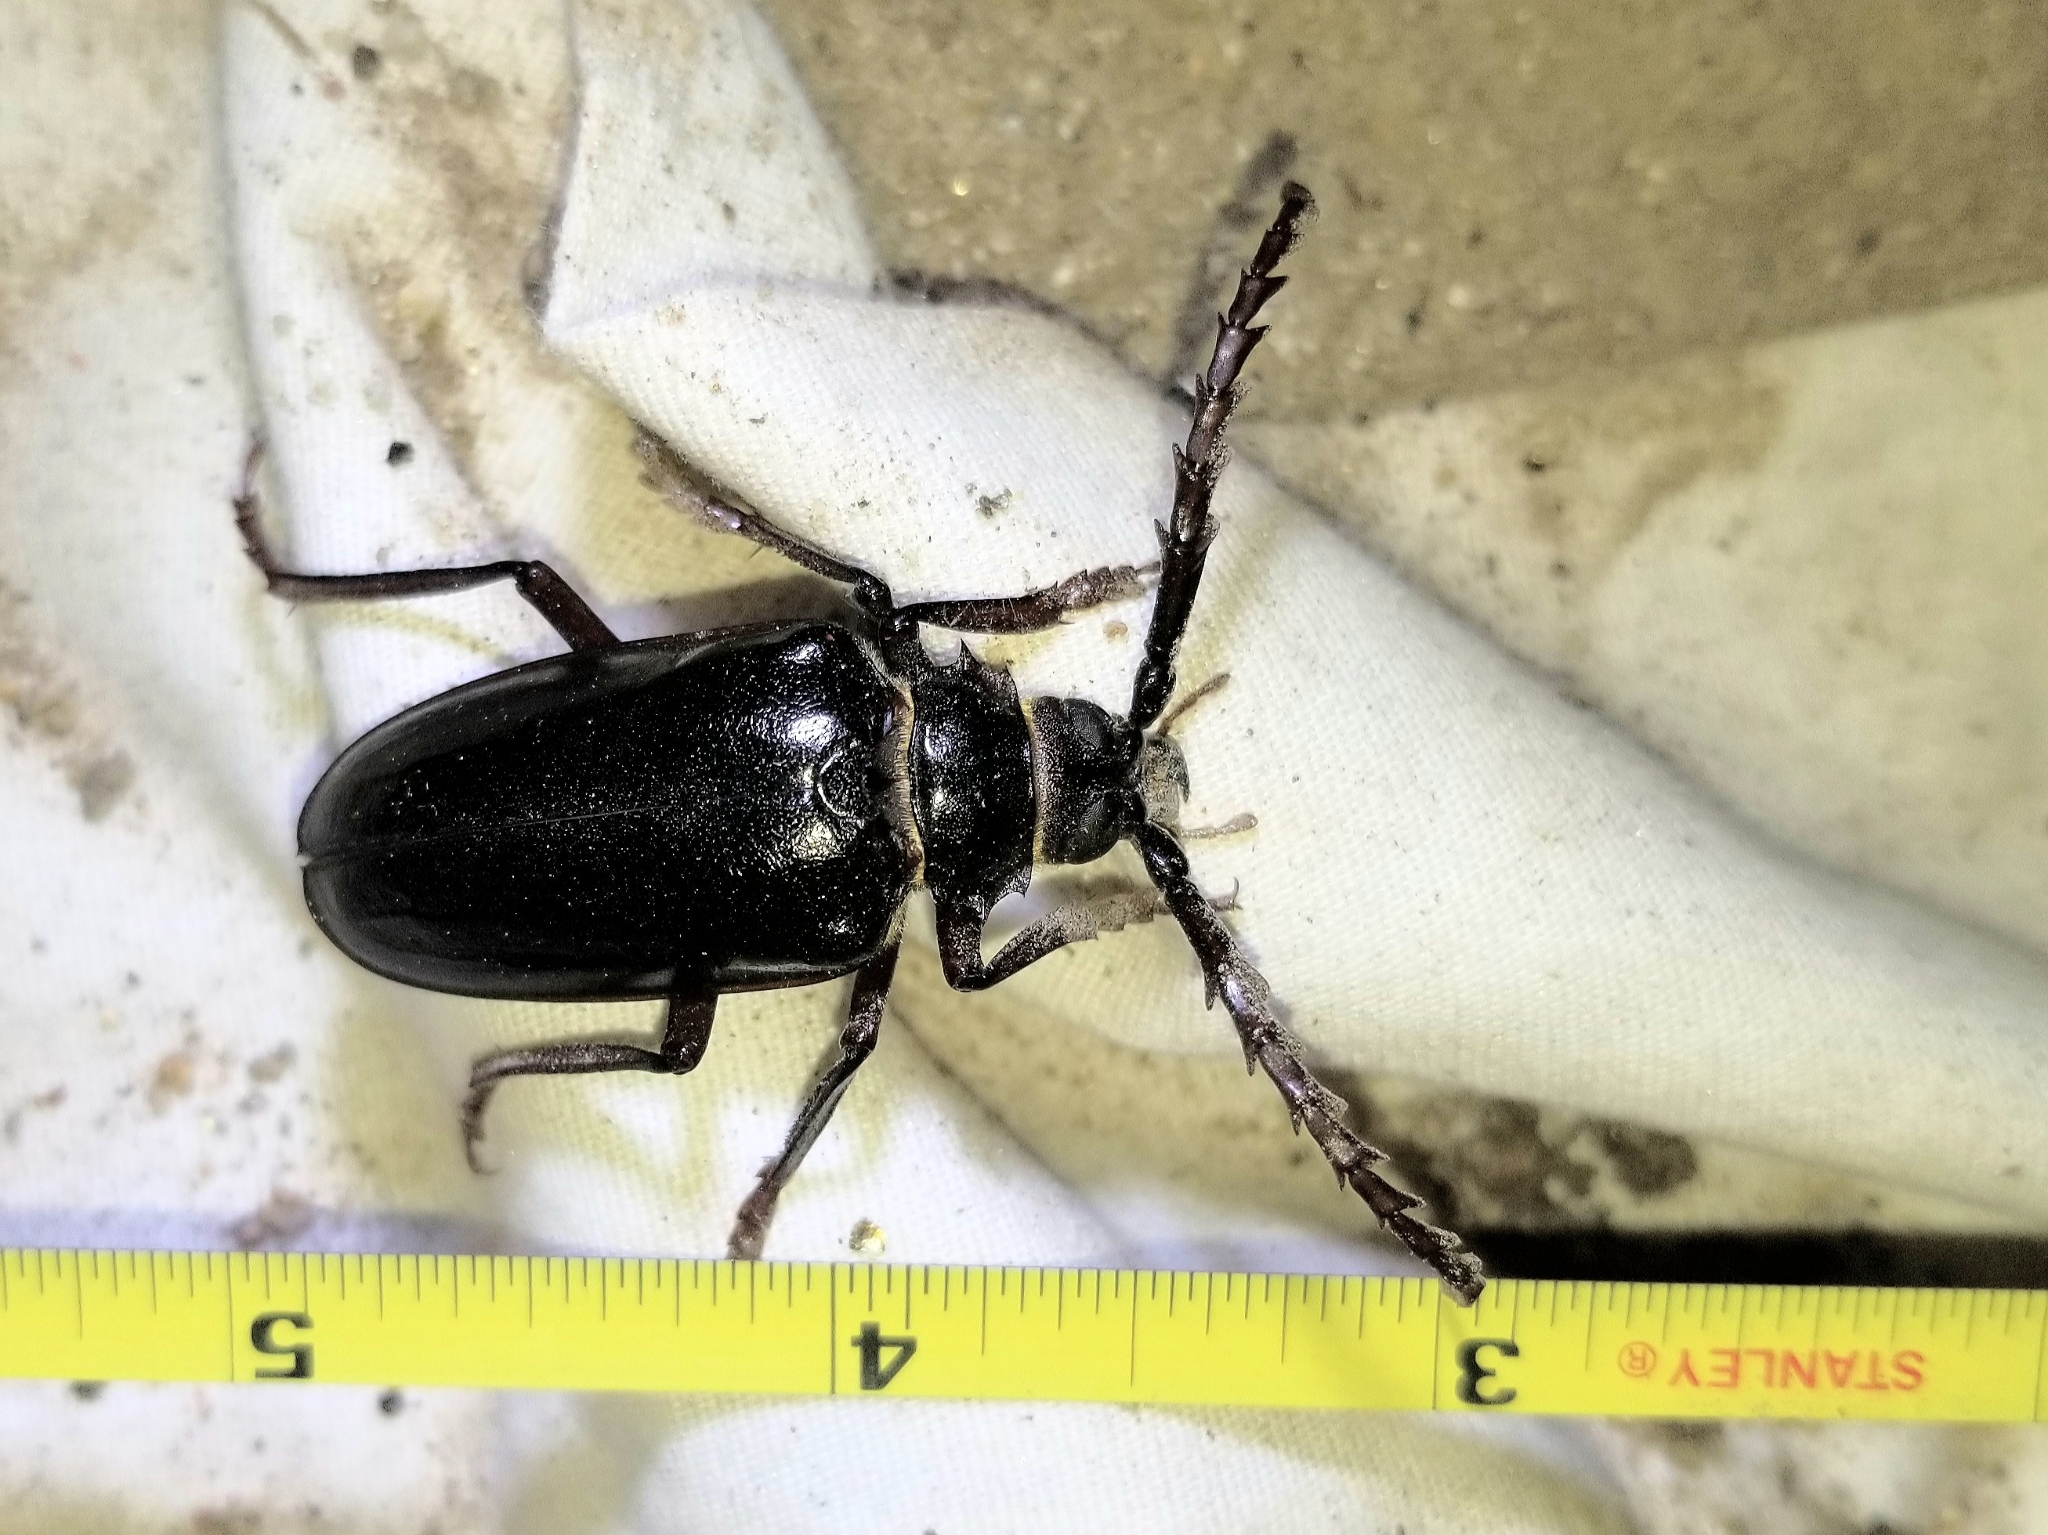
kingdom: Animalia
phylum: Arthropoda
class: Insecta
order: Coleoptera
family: Cerambycidae
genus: Prionus
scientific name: Prionus californicus
